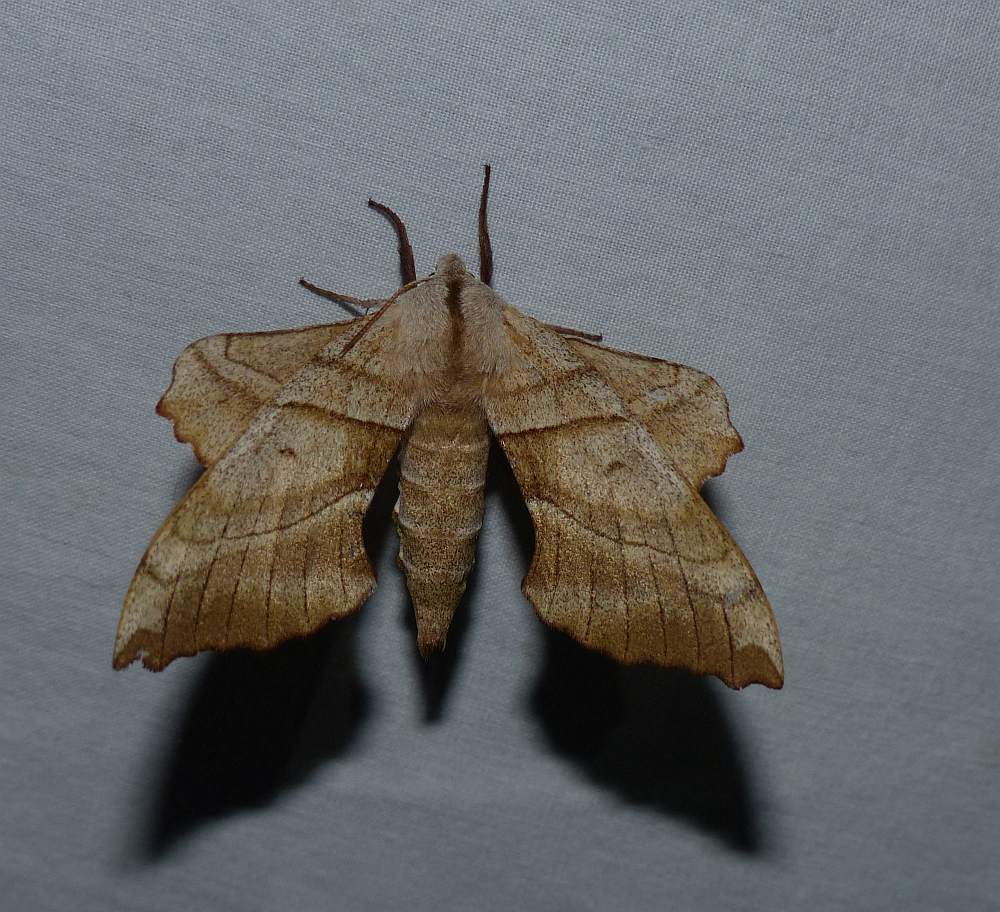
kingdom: Animalia
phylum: Arthropoda
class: Insecta
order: Lepidoptera
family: Sphingidae
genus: Amorpha
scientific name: Amorpha juglandis
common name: Walnut sphinx
